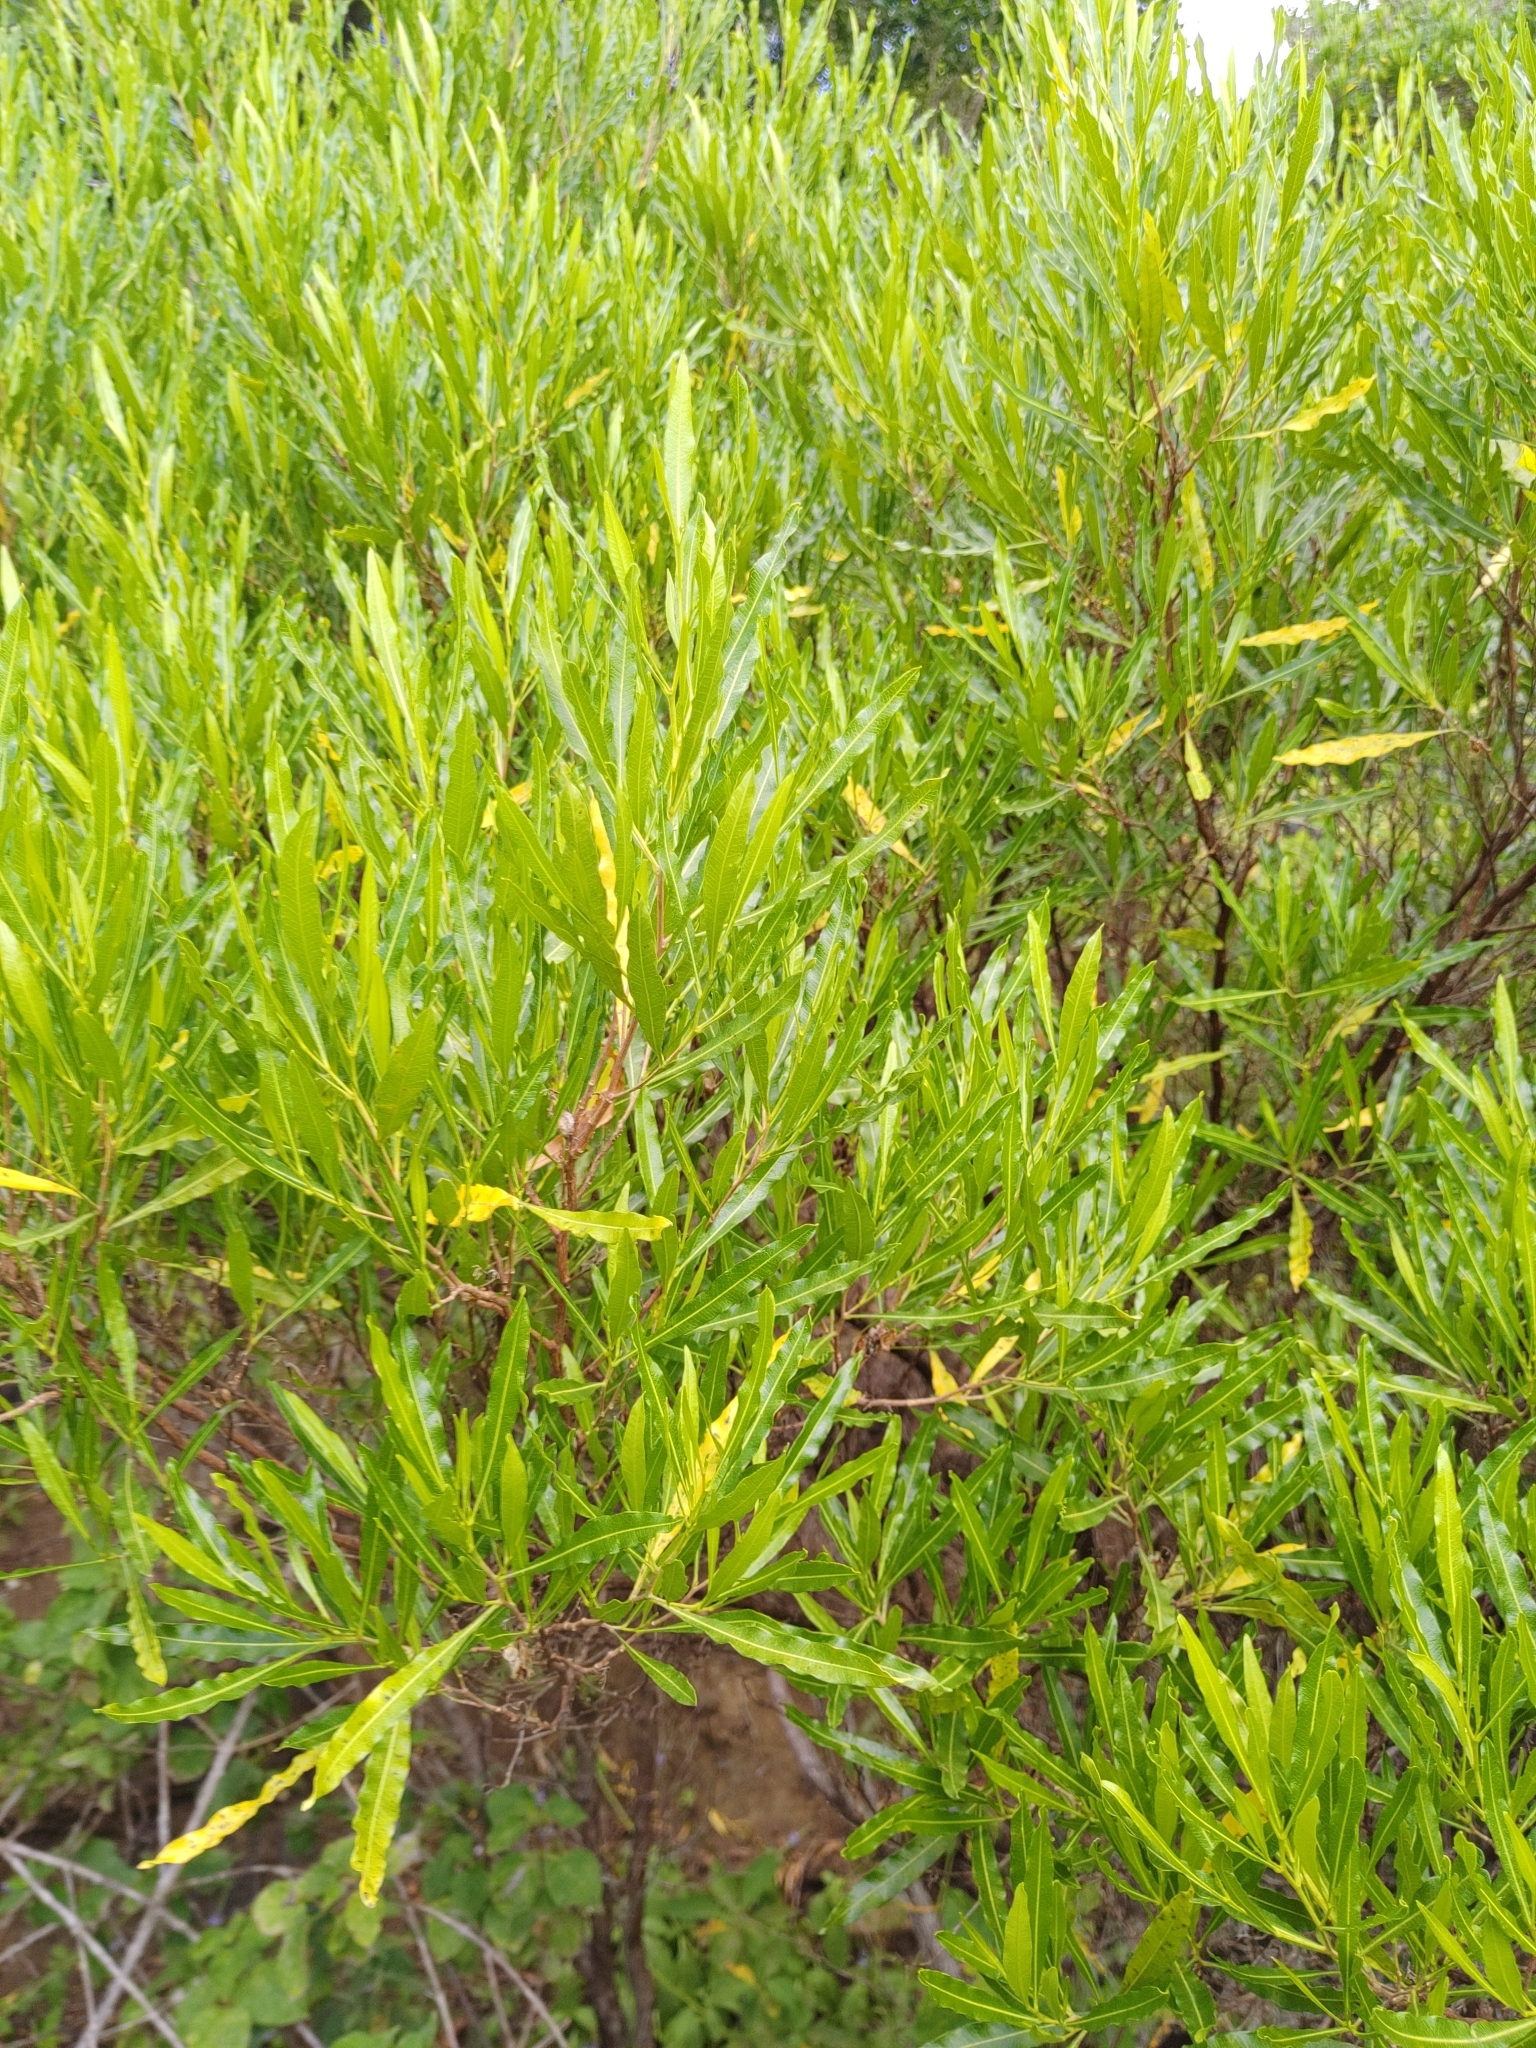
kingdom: Plantae
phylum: Tracheophyta
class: Magnoliopsida
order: Sapindales
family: Sapindaceae
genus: Dodonaea
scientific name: Dodonaea viscosa
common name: Hopbush
